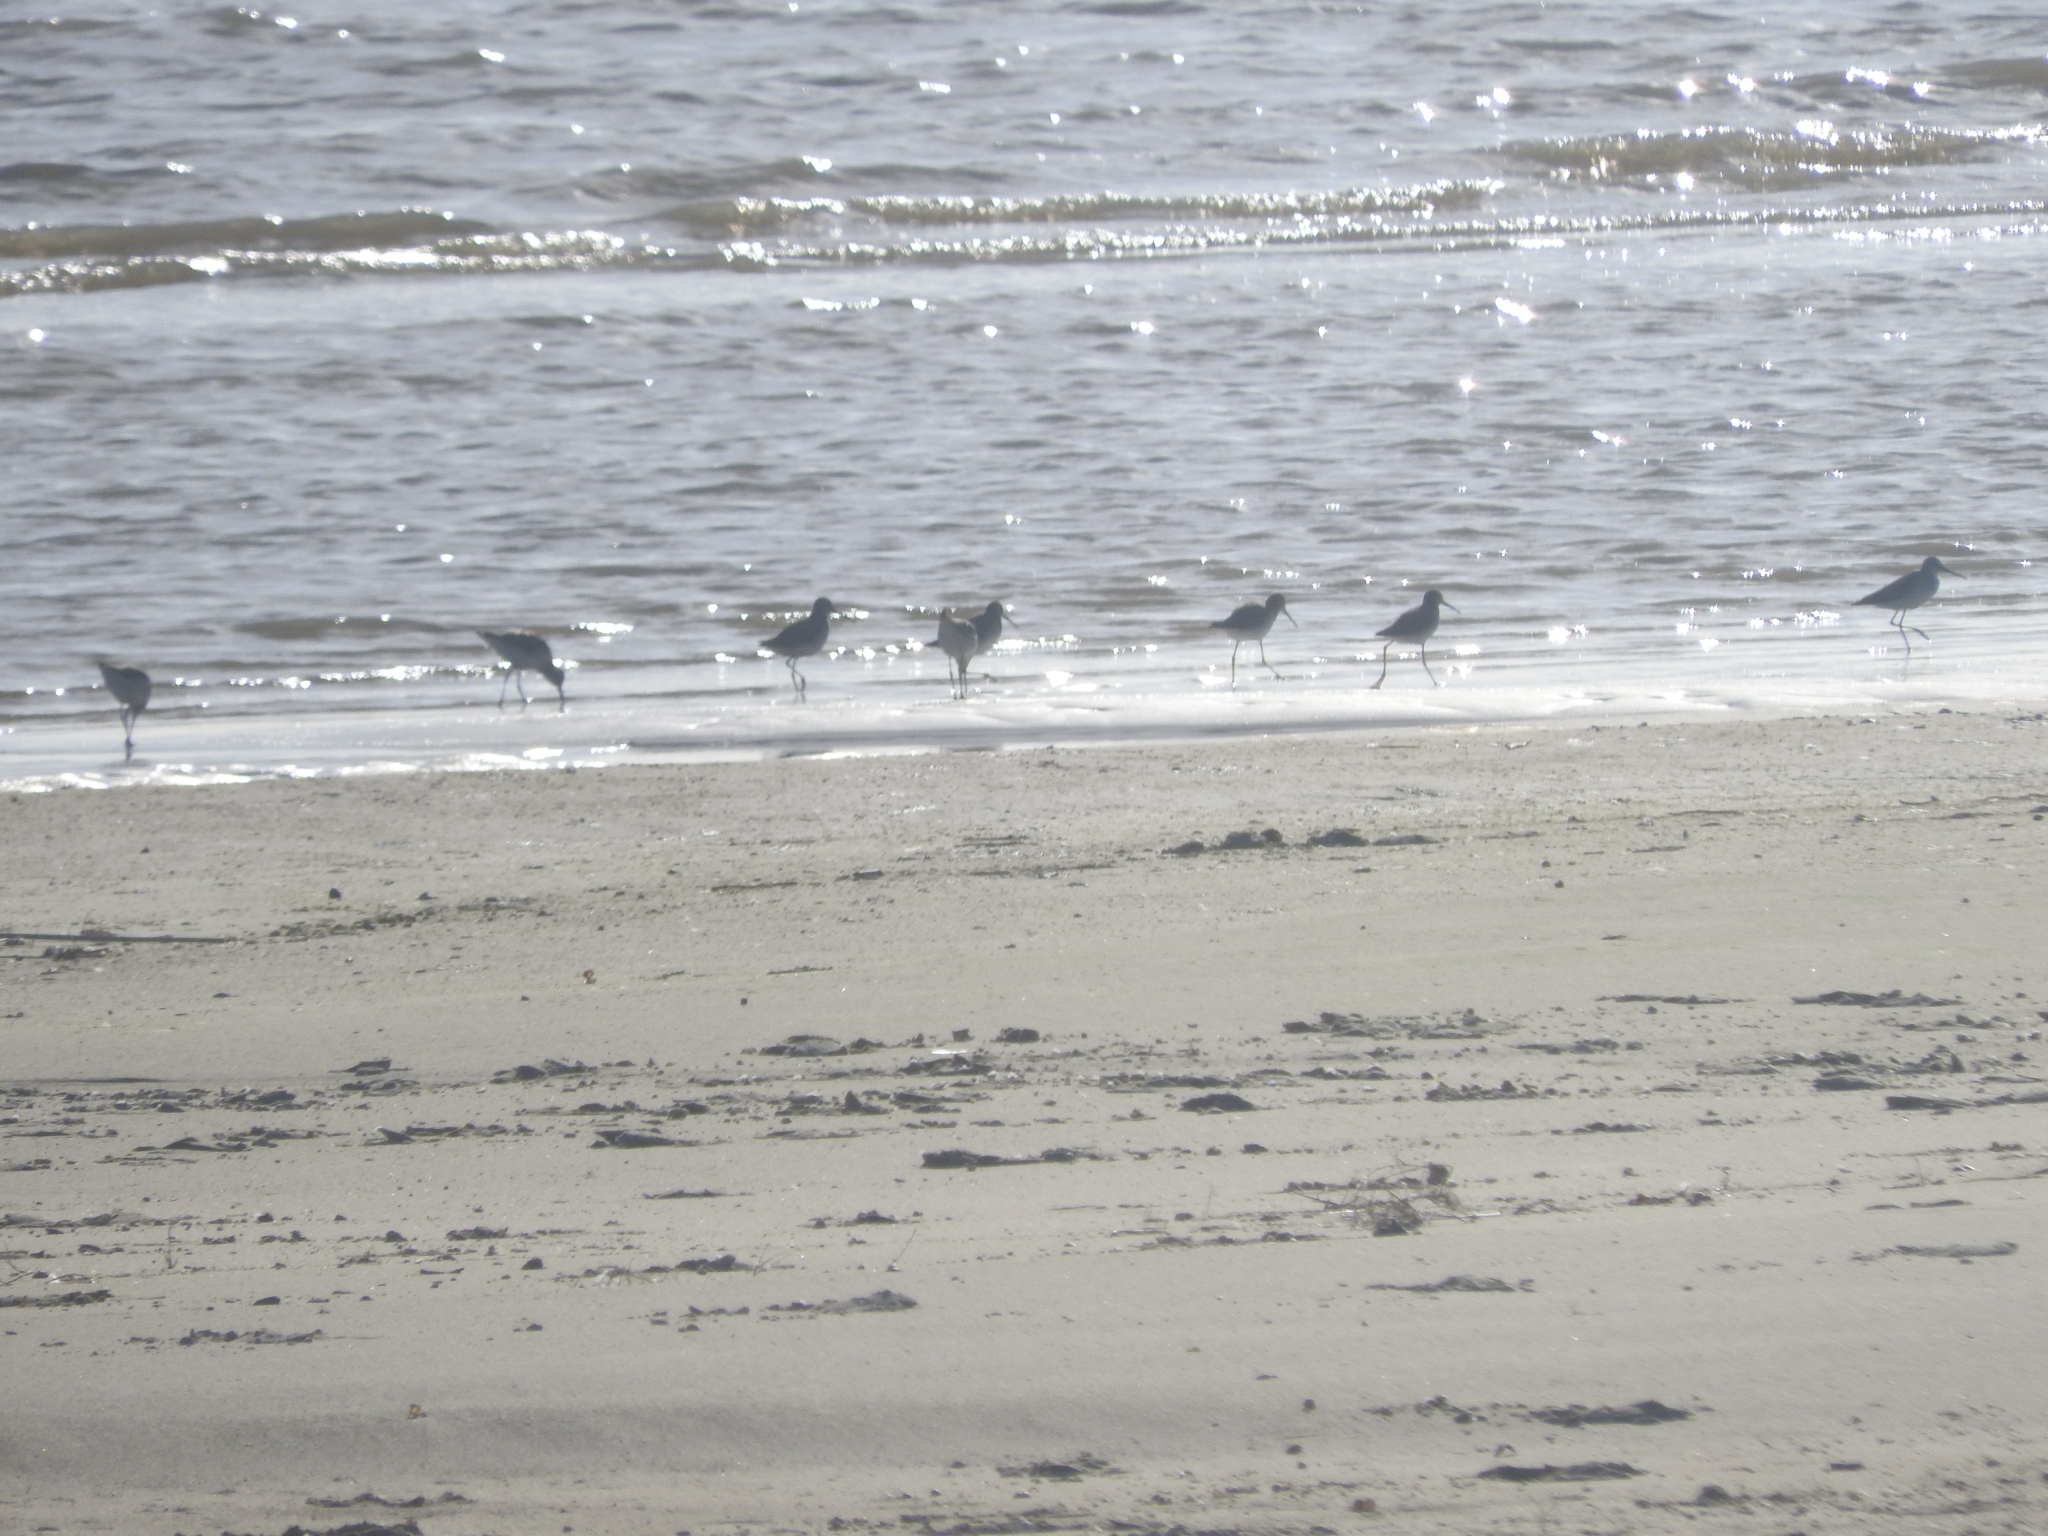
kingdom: Animalia
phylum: Chordata
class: Aves
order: Charadriiformes
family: Scolopacidae
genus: Calidris
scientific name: Calidris himantopus
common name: Stilt sandpiper
